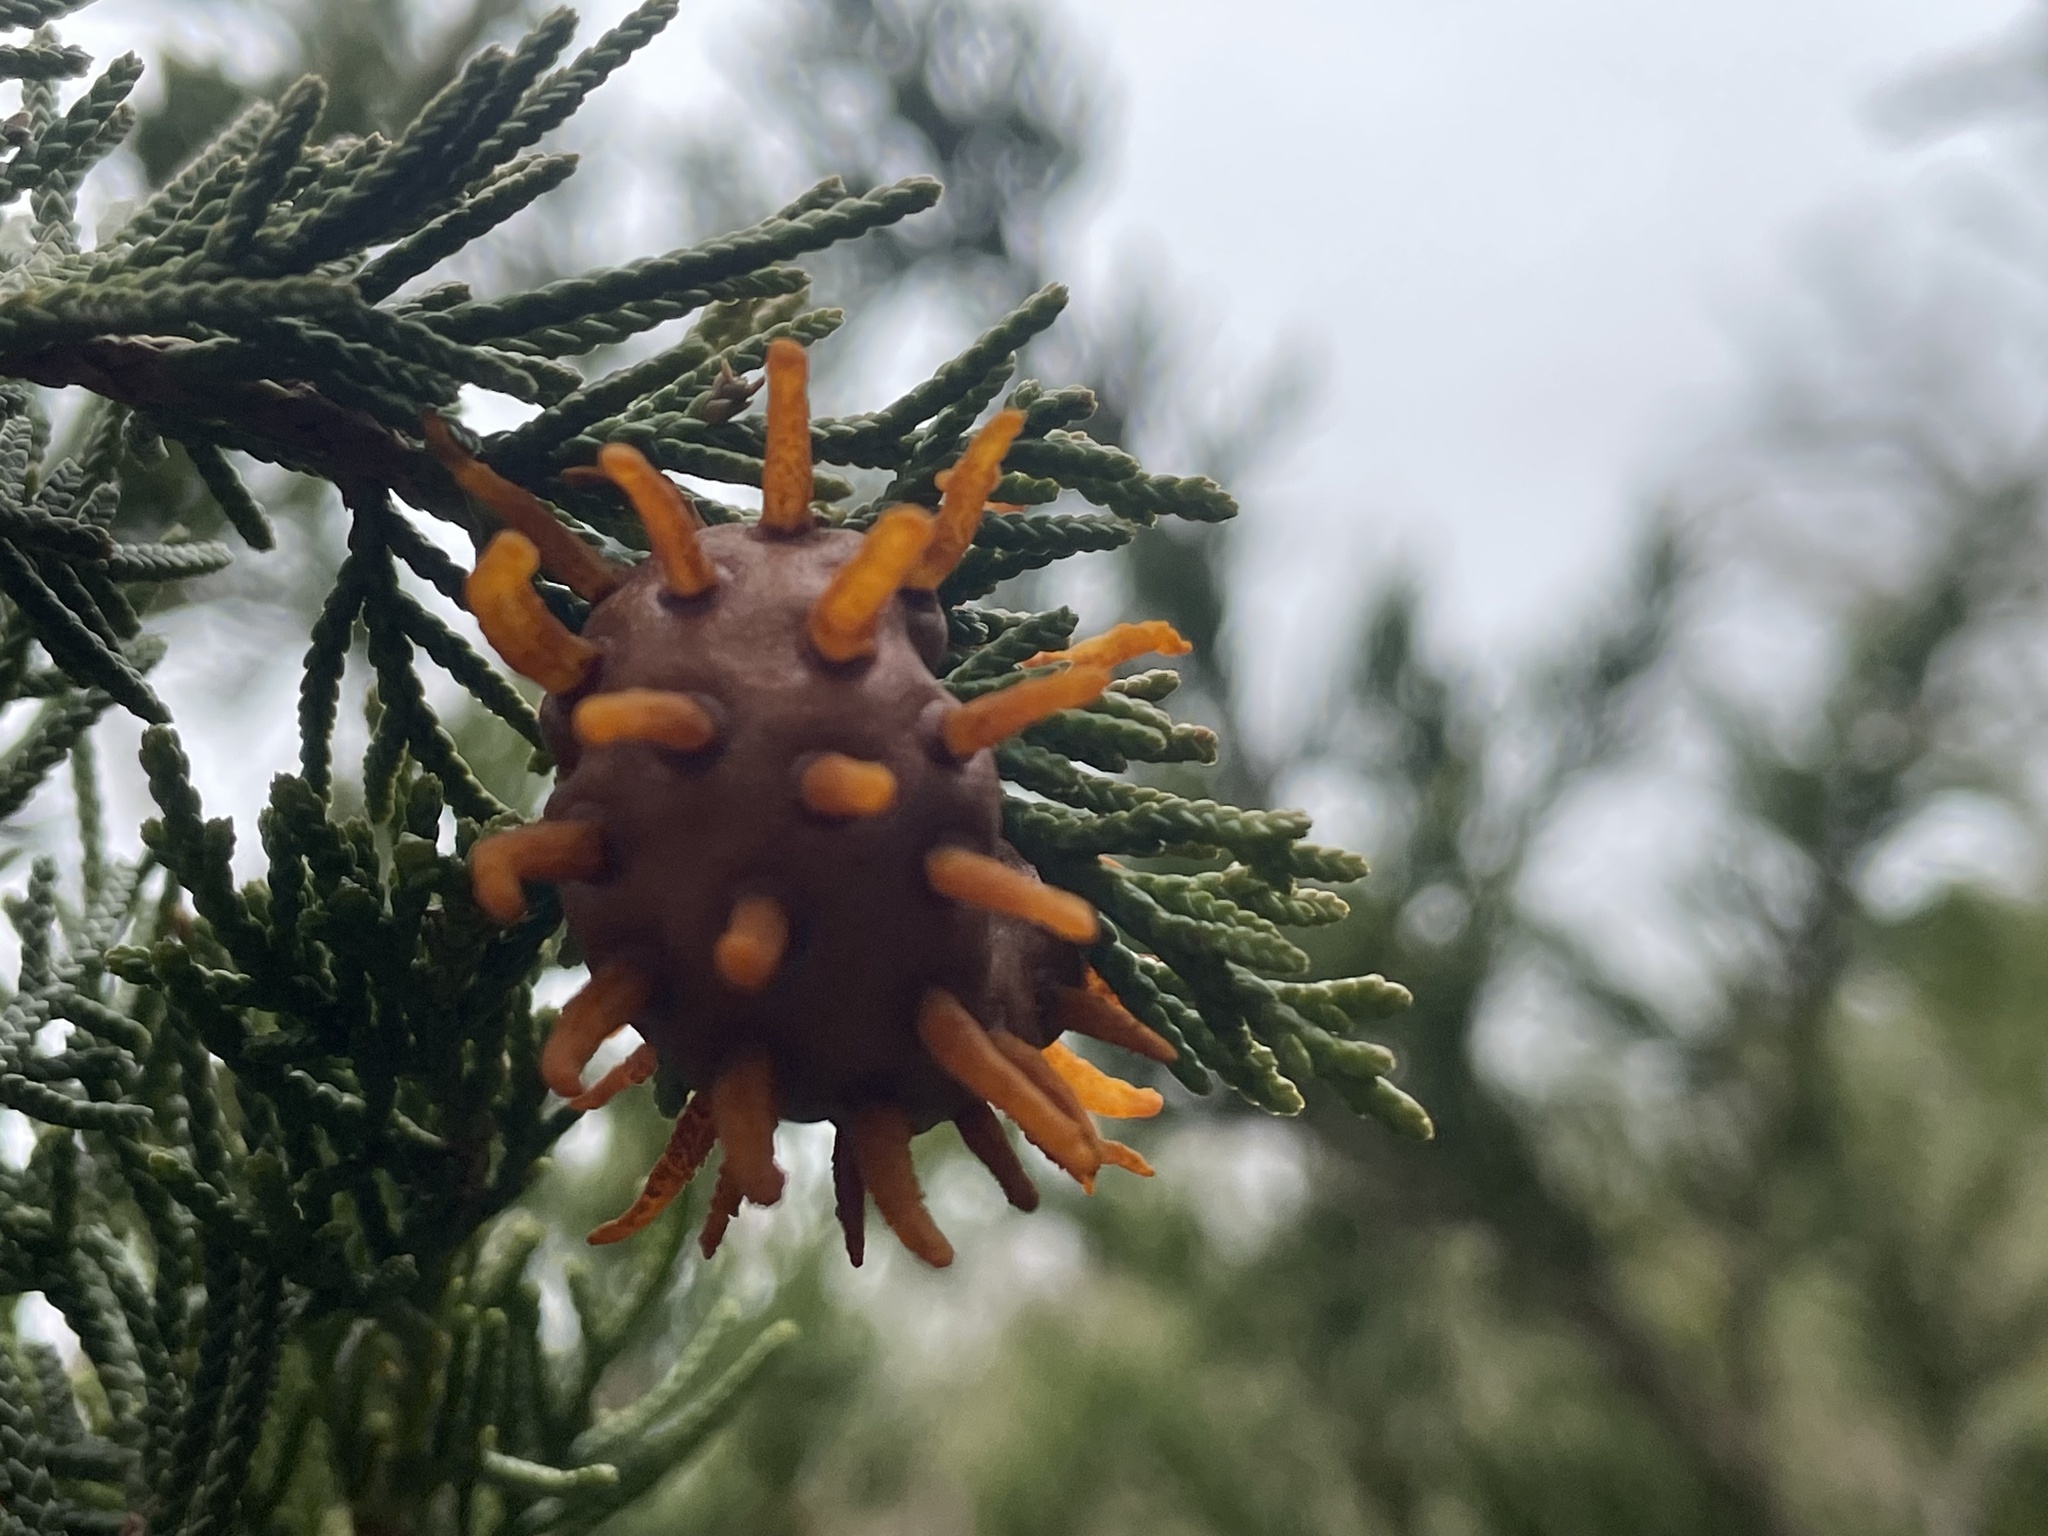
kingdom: Fungi
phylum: Basidiomycota
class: Pucciniomycetes
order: Pucciniales
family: Gymnosporangiaceae
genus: Gymnosporangium
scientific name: Gymnosporangium juniperi-virginianae
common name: Juniper-apple rust
